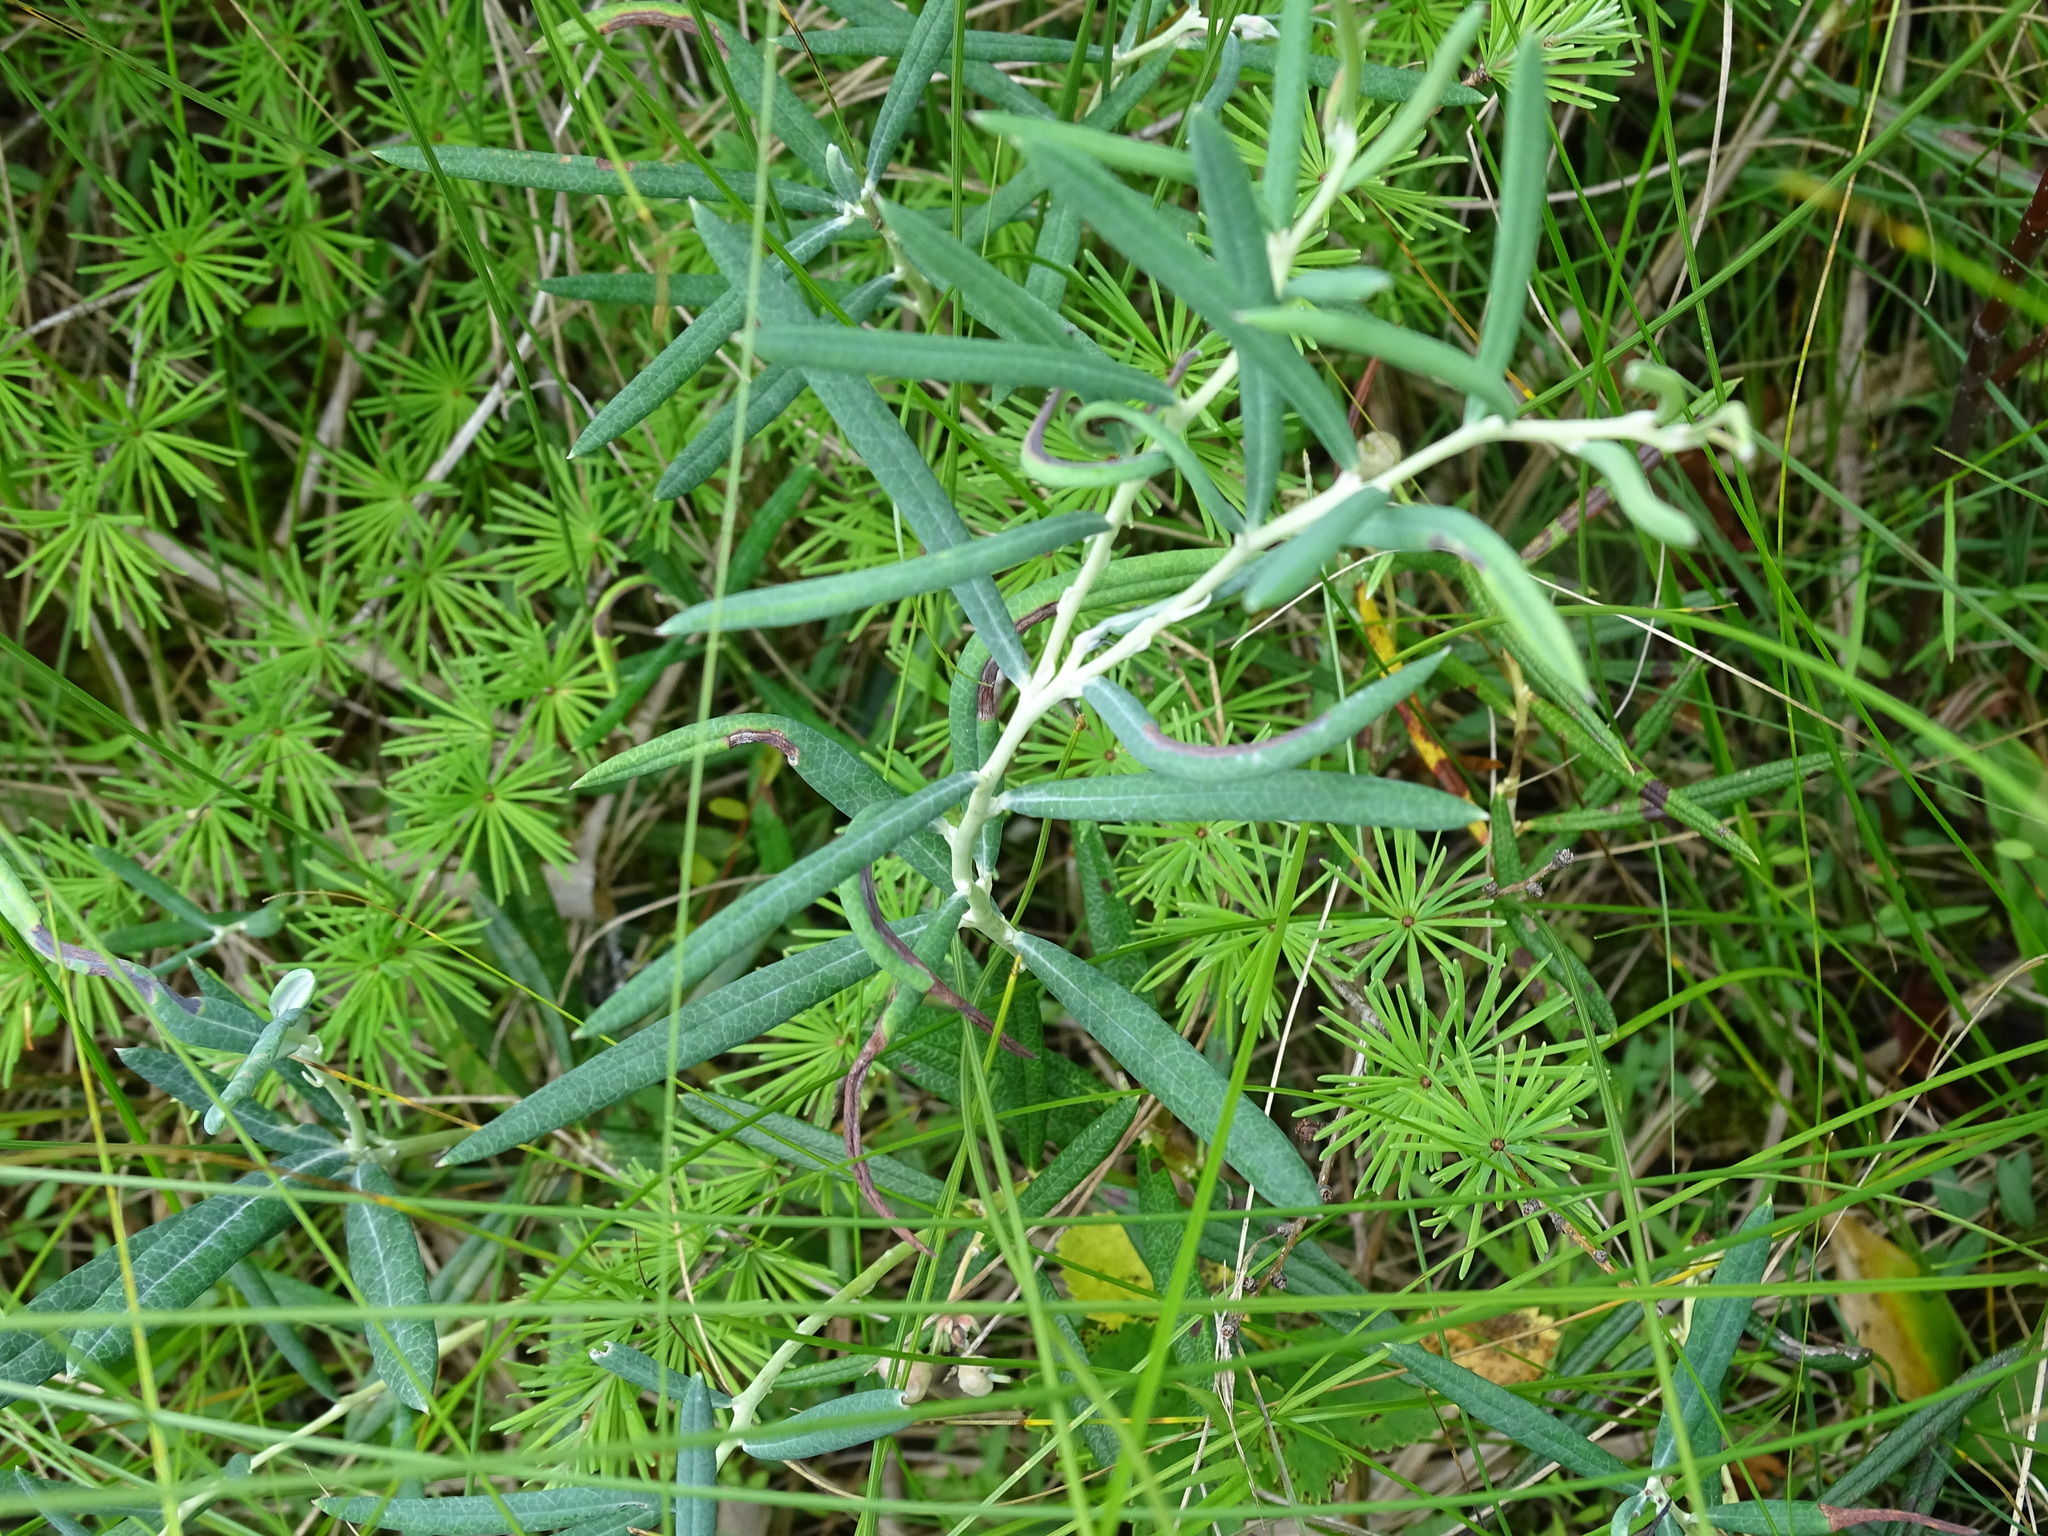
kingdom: Plantae
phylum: Tracheophyta
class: Magnoliopsida
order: Ericales
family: Ericaceae
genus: Andromeda
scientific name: Andromeda polifolia
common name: Bog-rosemary
